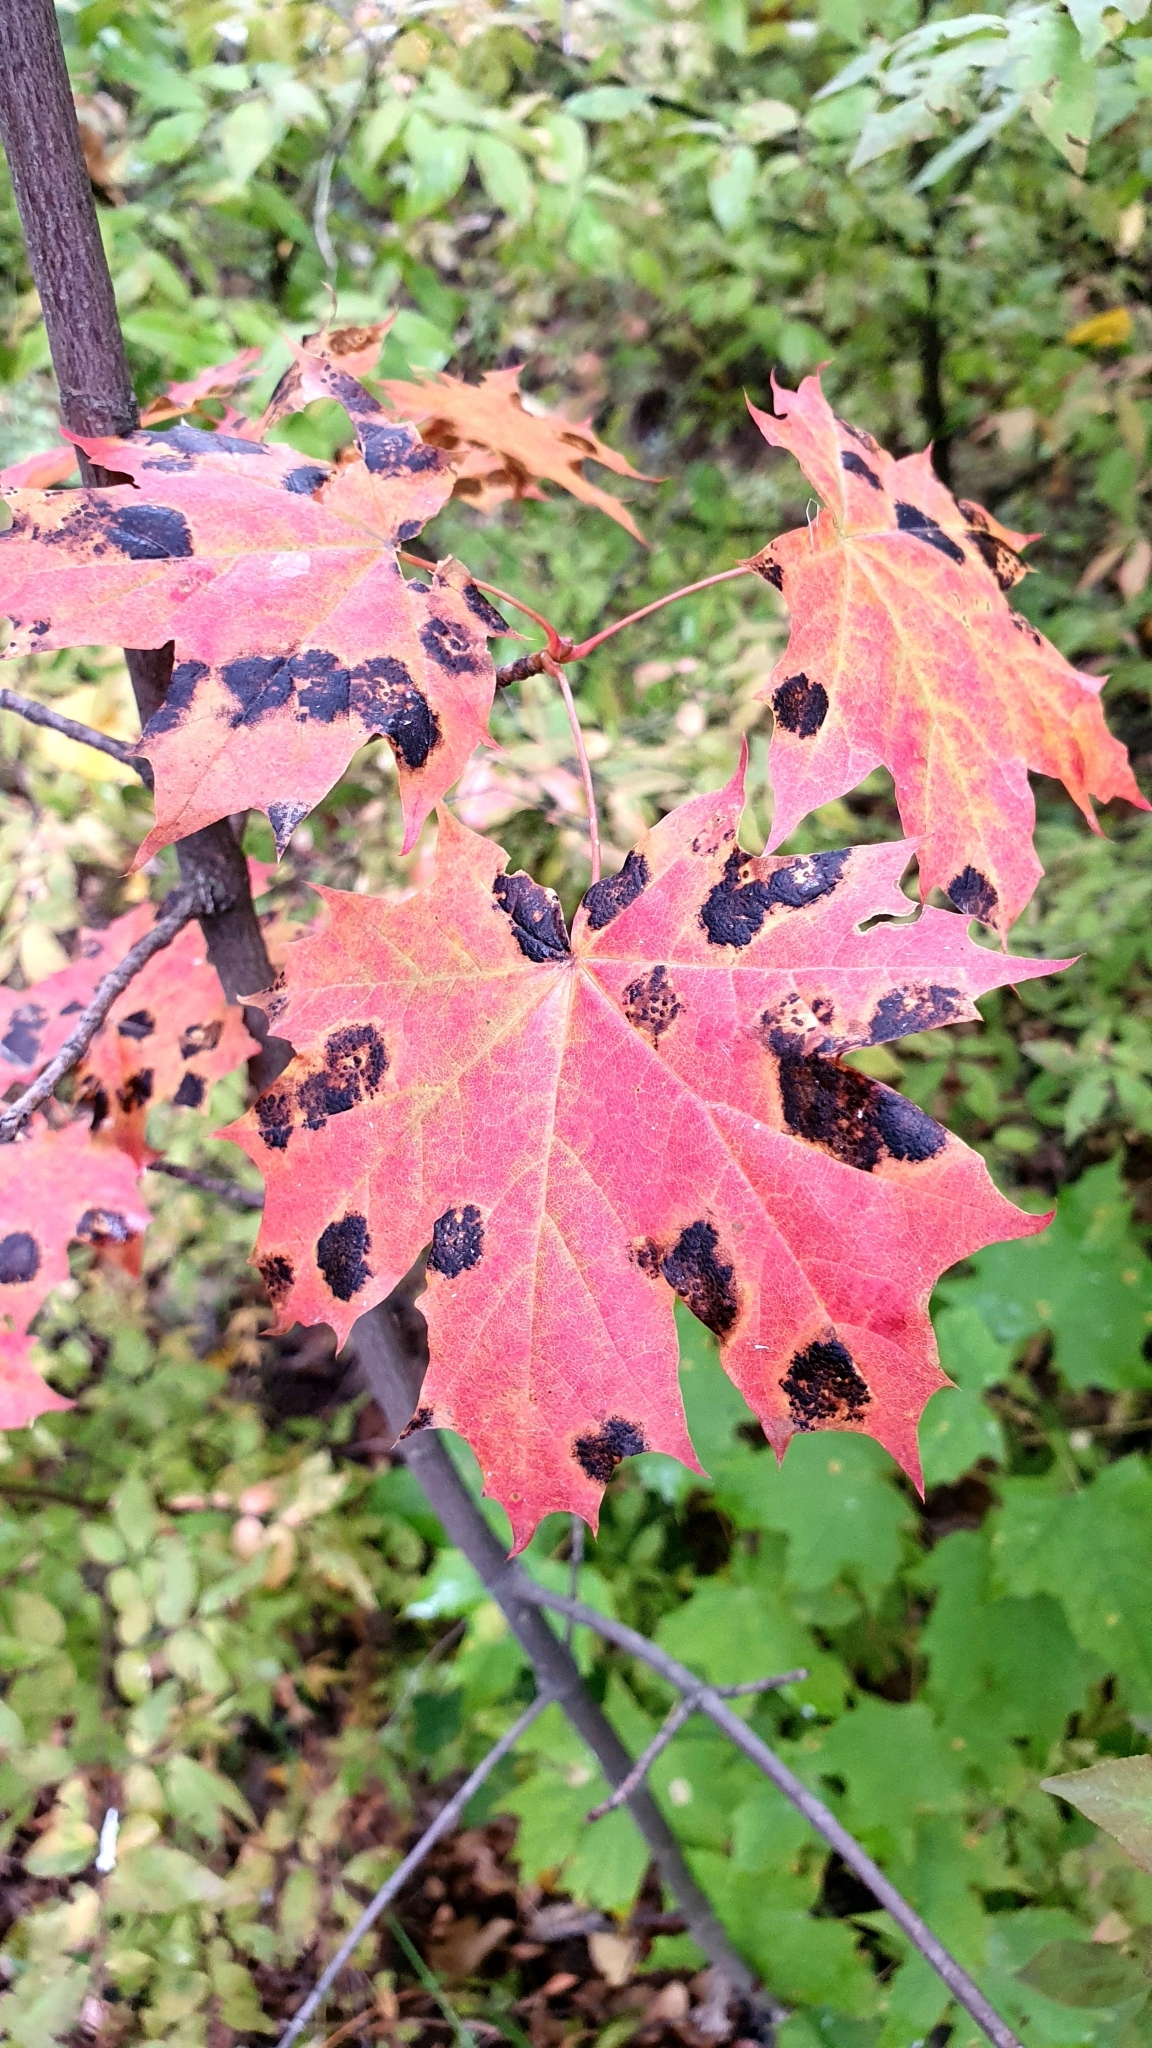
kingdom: Fungi
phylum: Ascomycota
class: Leotiomycetes
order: Rhytismatales
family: Rhytismataceae
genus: Rhytisma
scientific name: Rhytisma acerinum
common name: European tar spot
